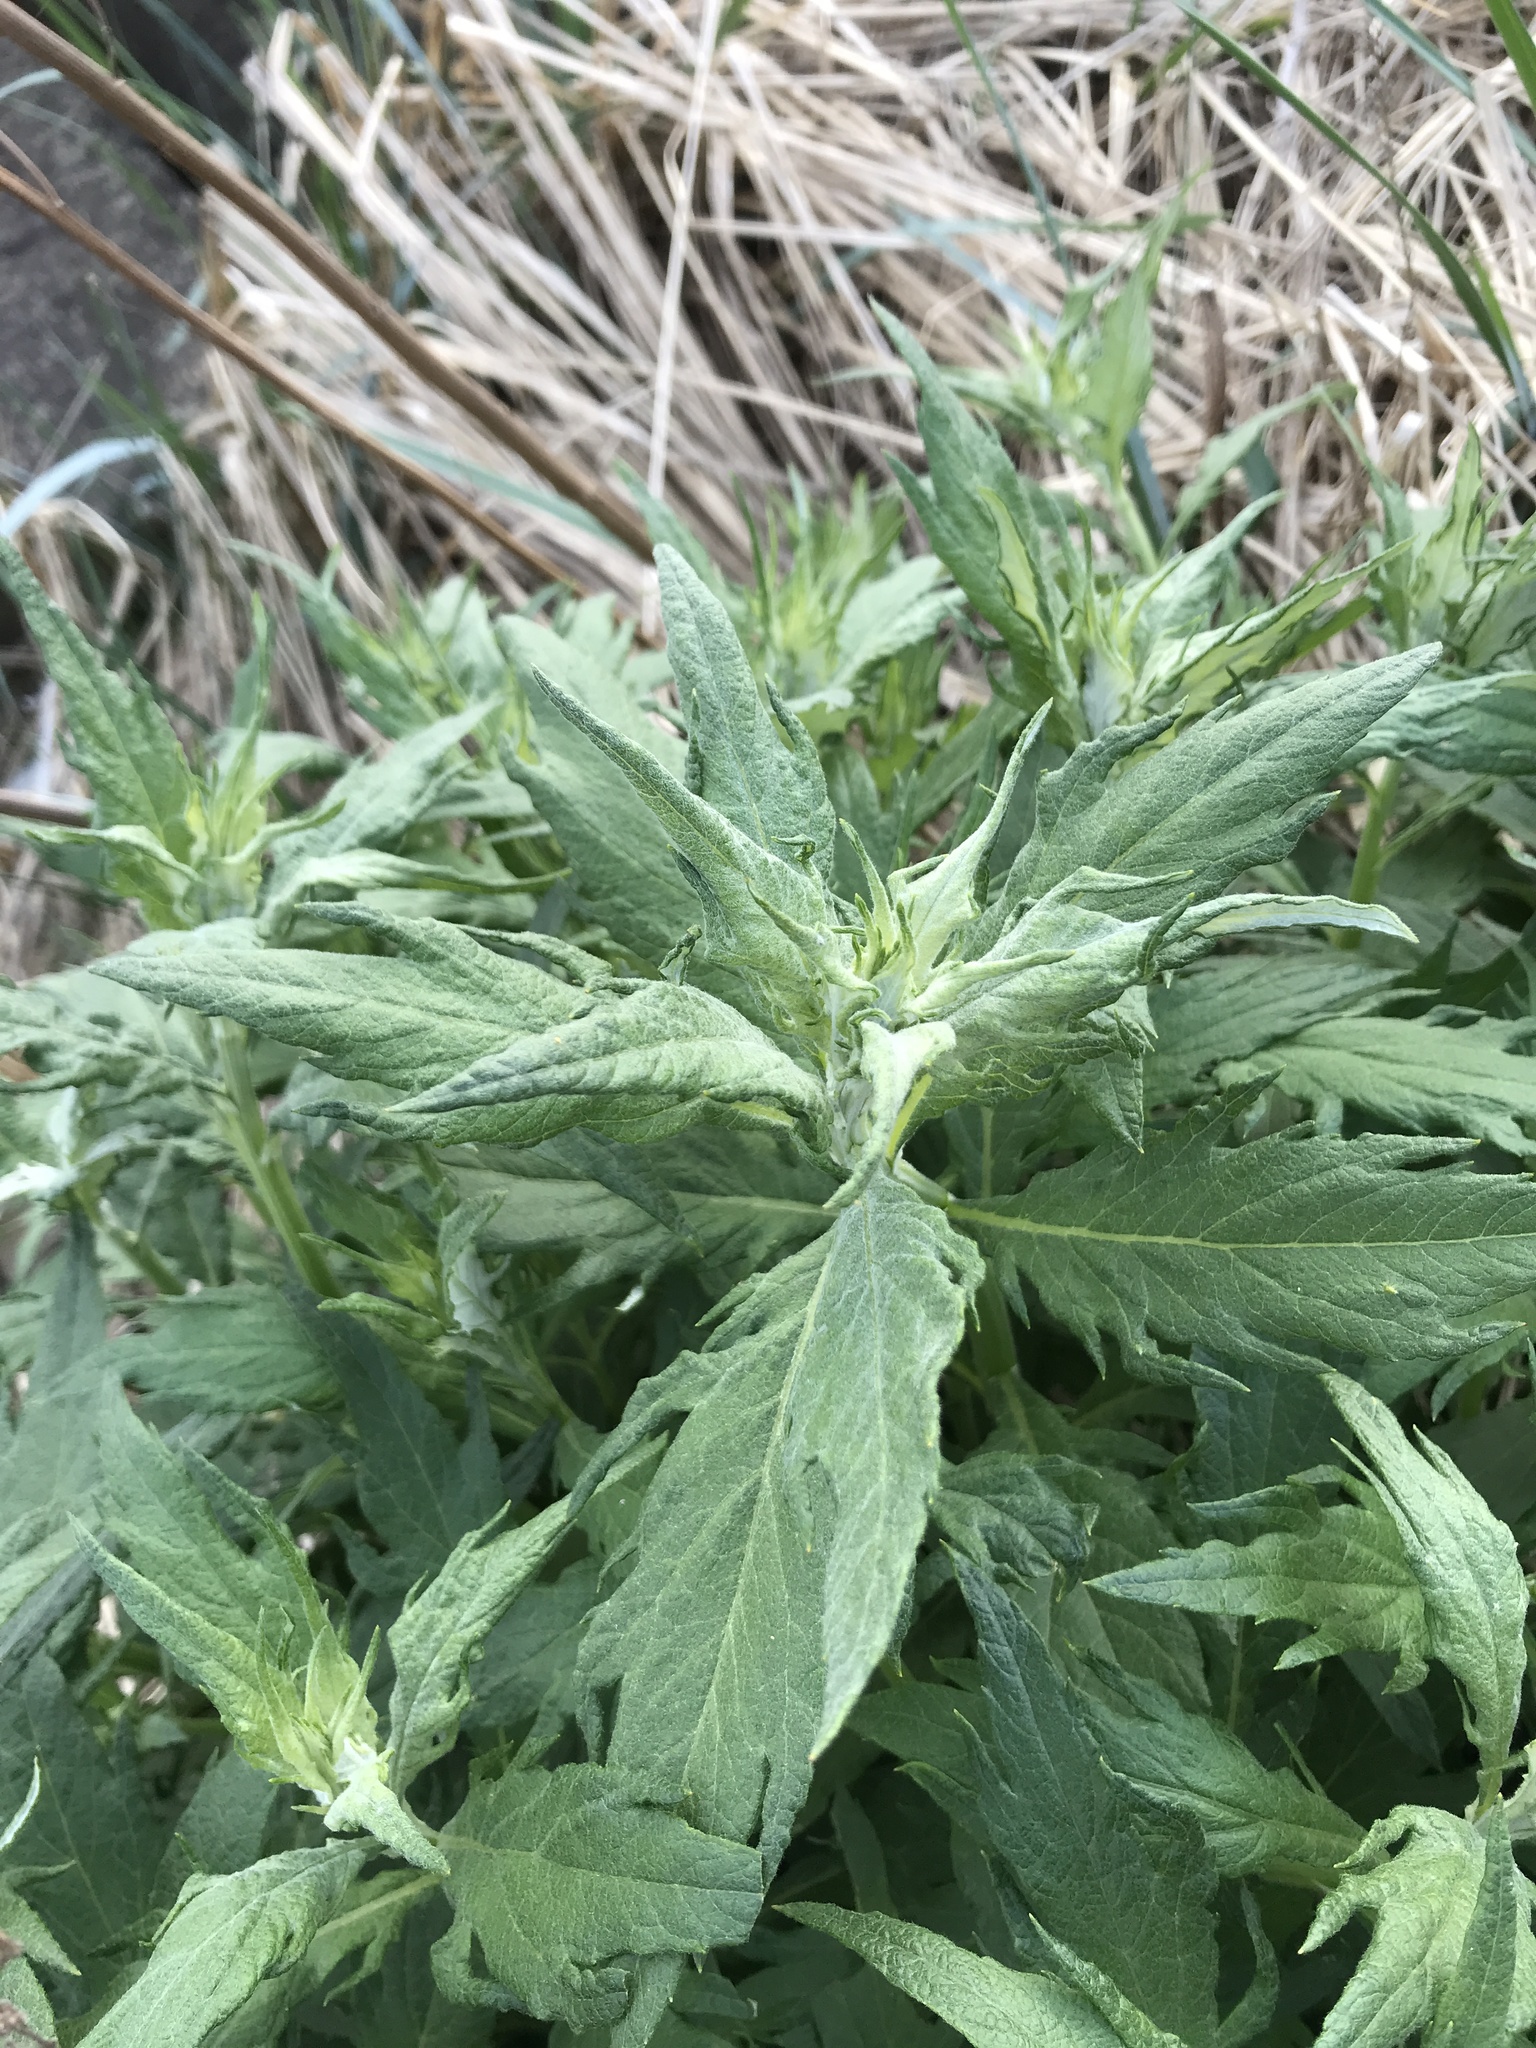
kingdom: Plantae
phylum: Tracheophyta
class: Magnoliopsida
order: Asterales
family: Asteraceae
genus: Artemisia
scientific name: Artemisia suksdorfii
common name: Suksdorf sagewort
